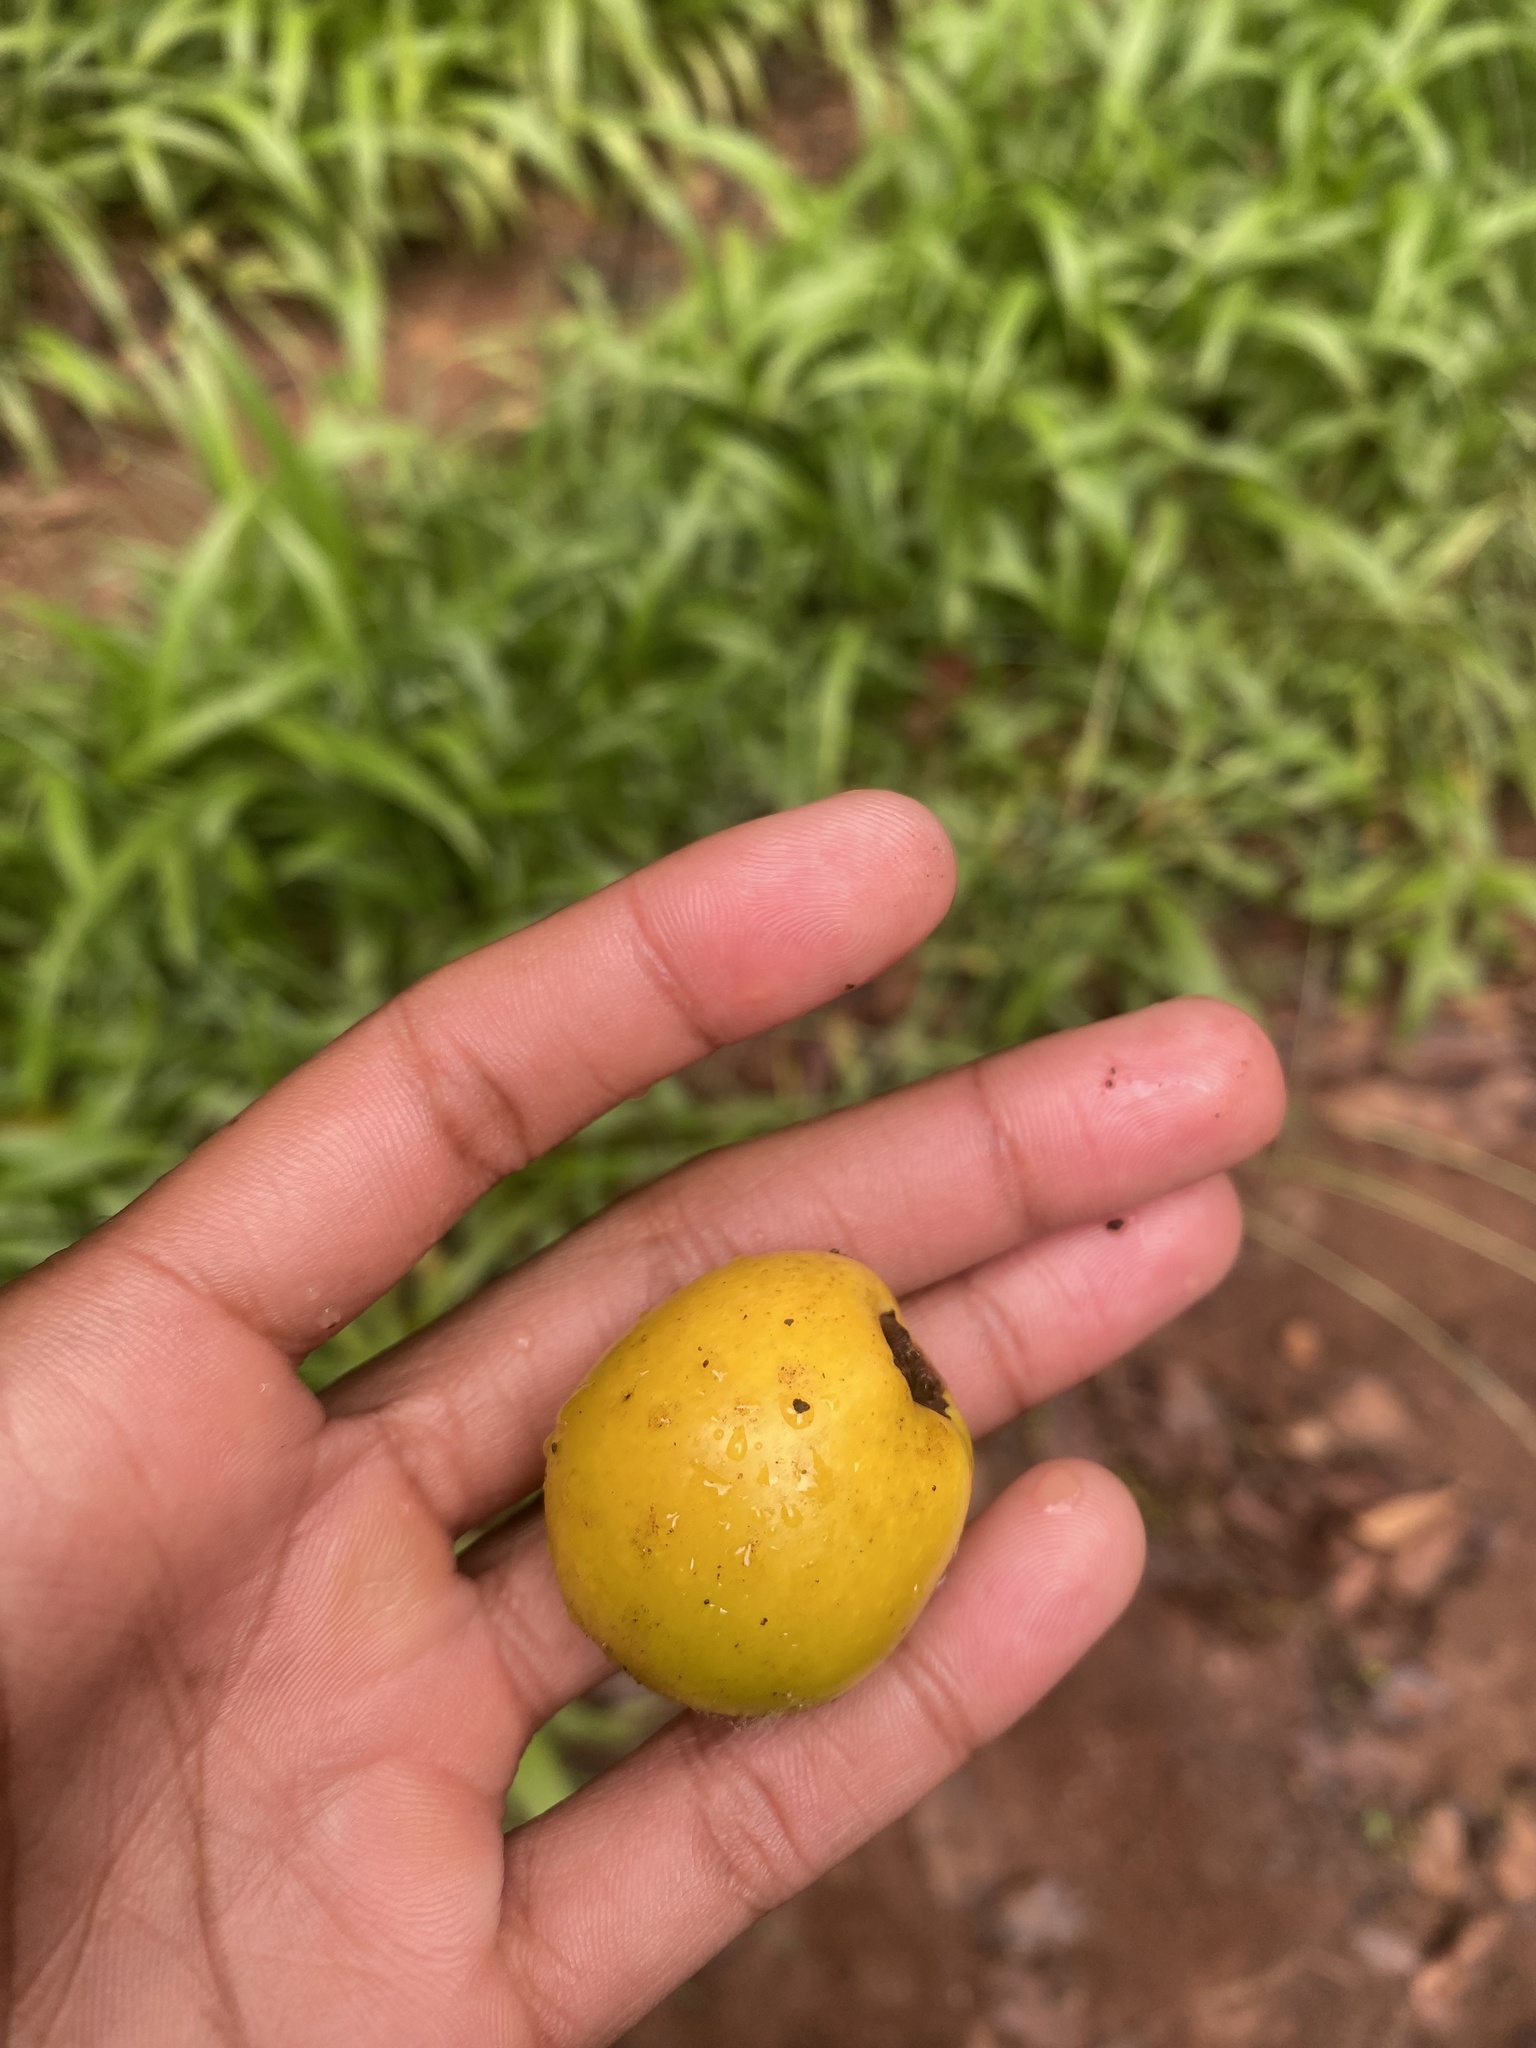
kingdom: Plantae
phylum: Tracheophyta
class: Magnoliopsida
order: Lamiales
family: Lamiaceae
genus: Gmelina
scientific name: Gmelina arborea
